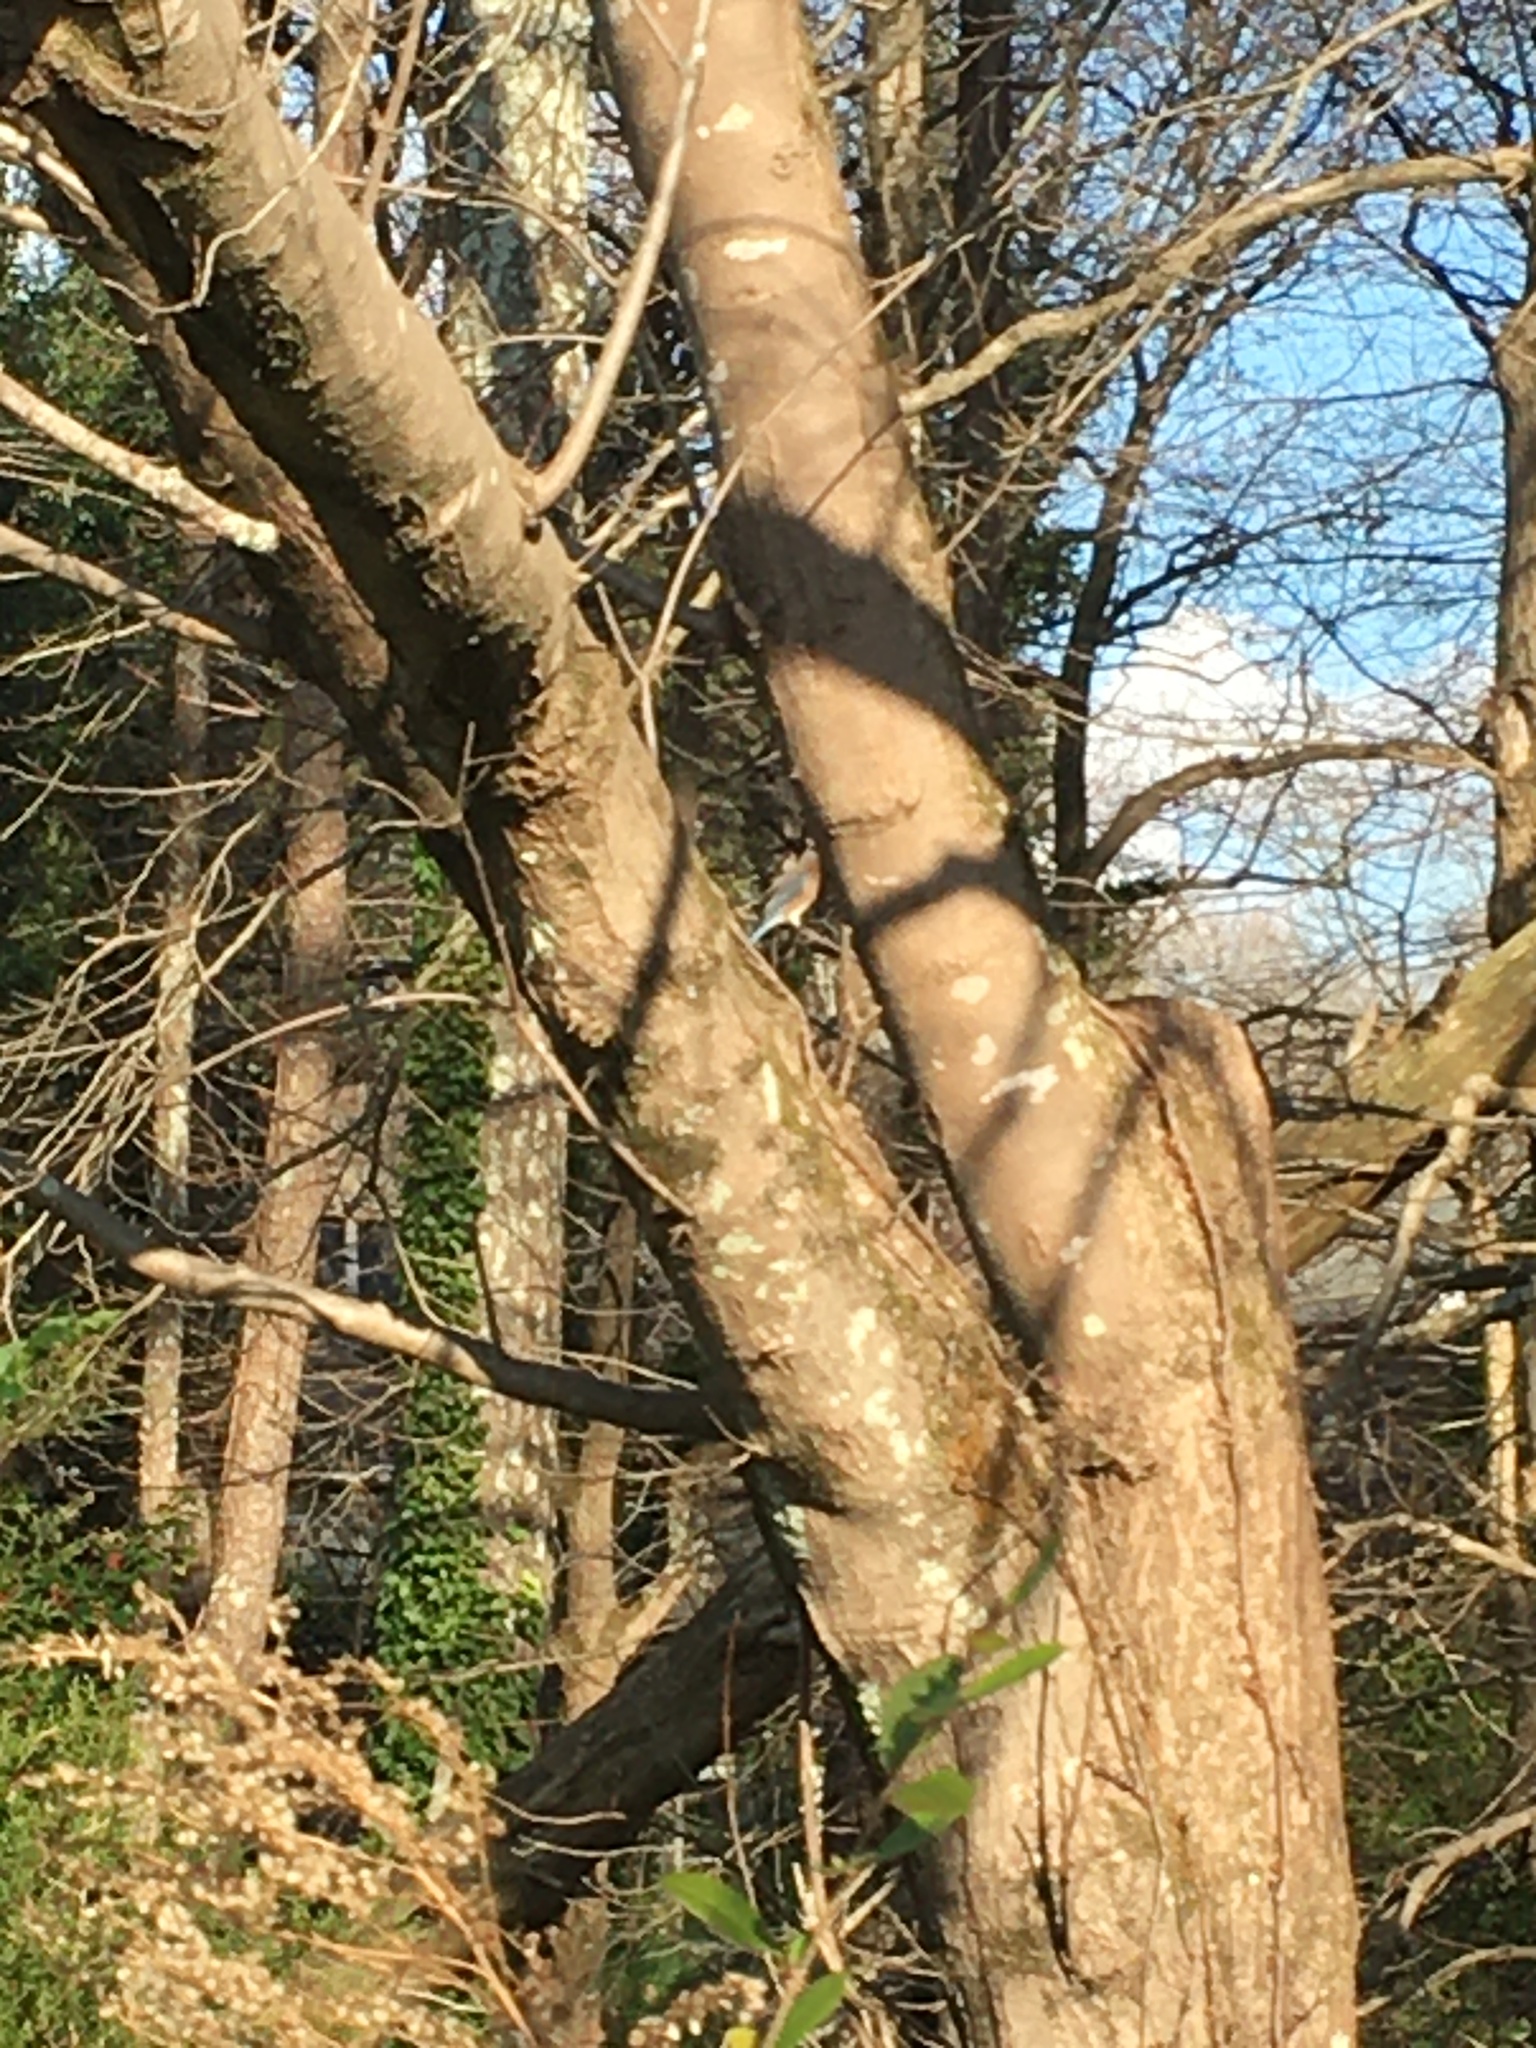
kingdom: Animalia
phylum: Chordata
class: Aves
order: Passeriformes
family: Turdidae
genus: Sialia
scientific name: Sialia sialis
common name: Eastern bluebird
